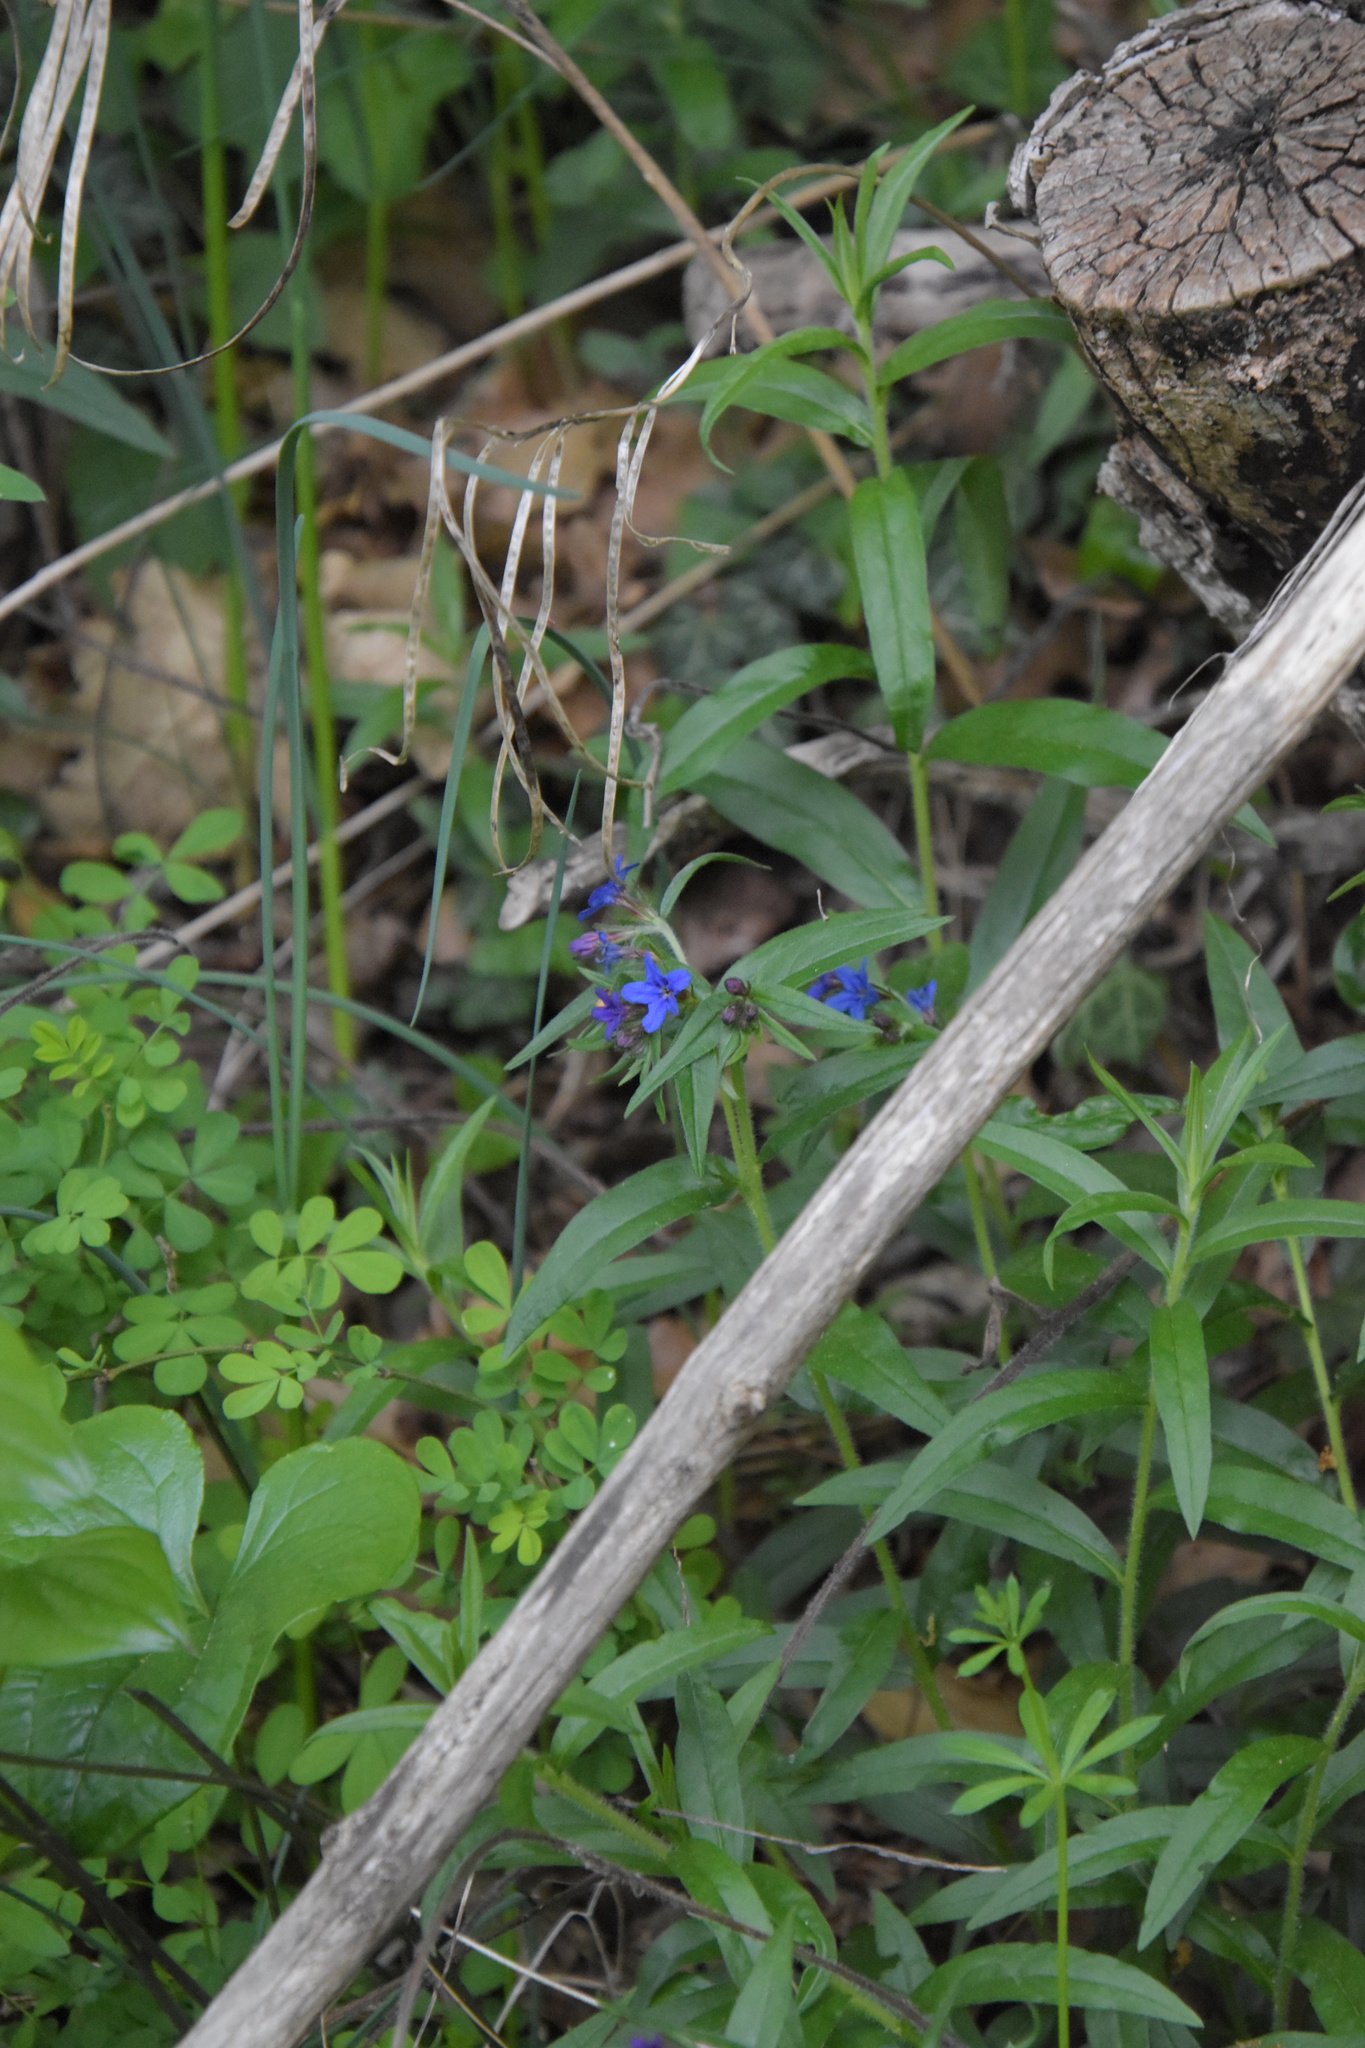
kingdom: Plantae
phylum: Tracheophyta
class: Magnoliopsida
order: Boraginales
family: Boraginaceae
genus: Aegonychon
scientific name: Aegonychon purpurocaeruleum
